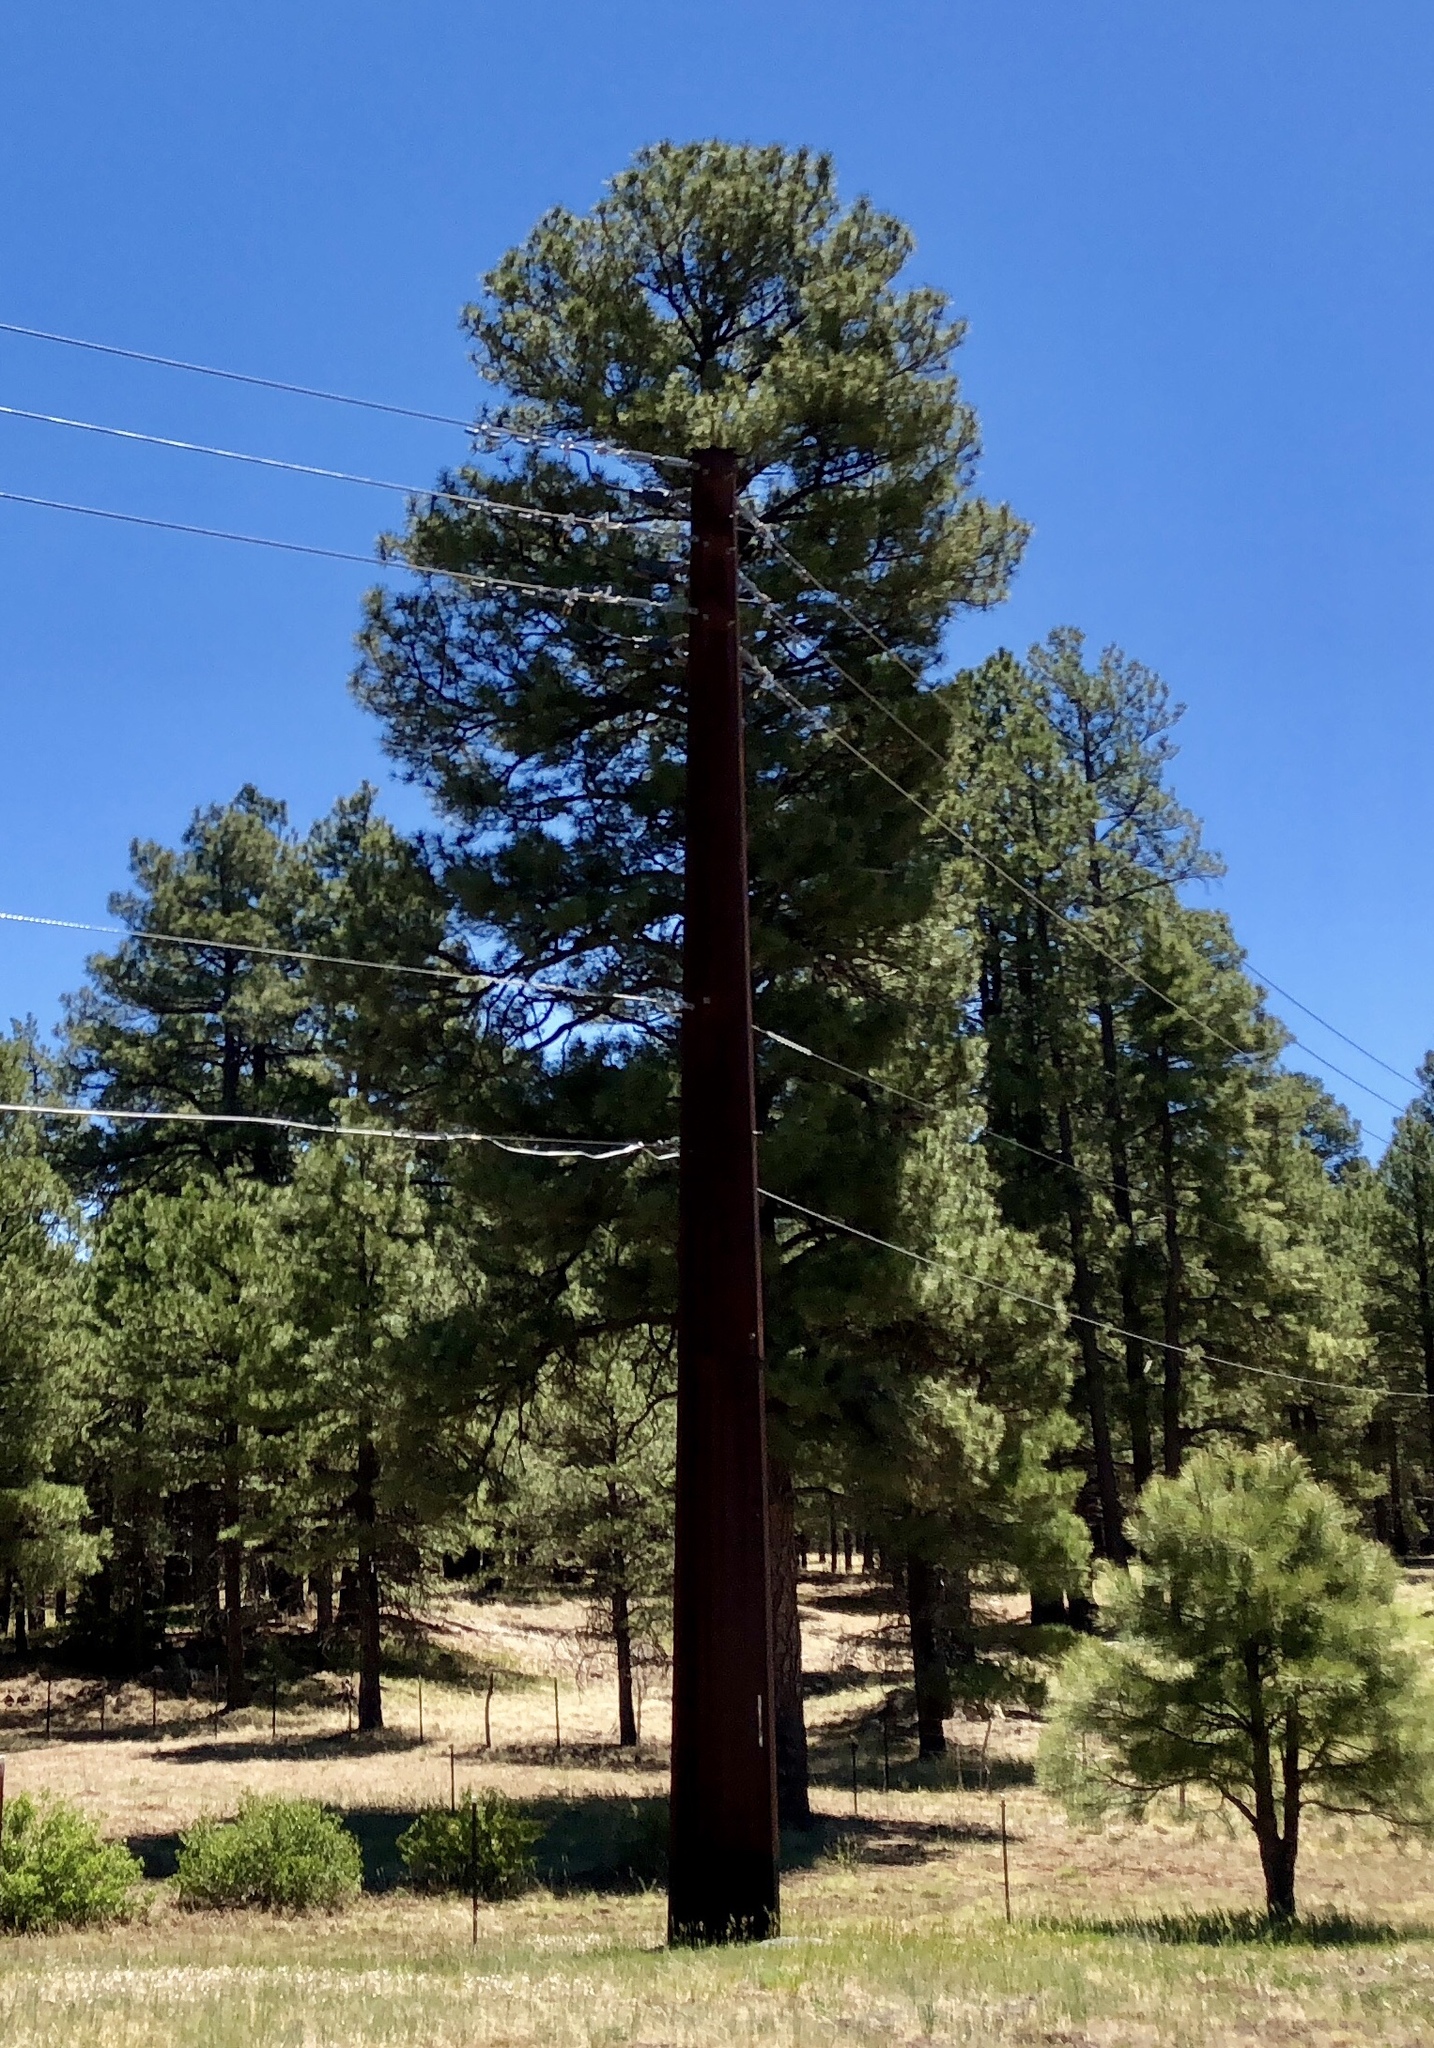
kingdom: Plantae
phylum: Tracheophyta
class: Pinopsida
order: Pinales
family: Pinaceae
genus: Pinus
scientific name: Pinus ponderosa
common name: Western yellow-pine
